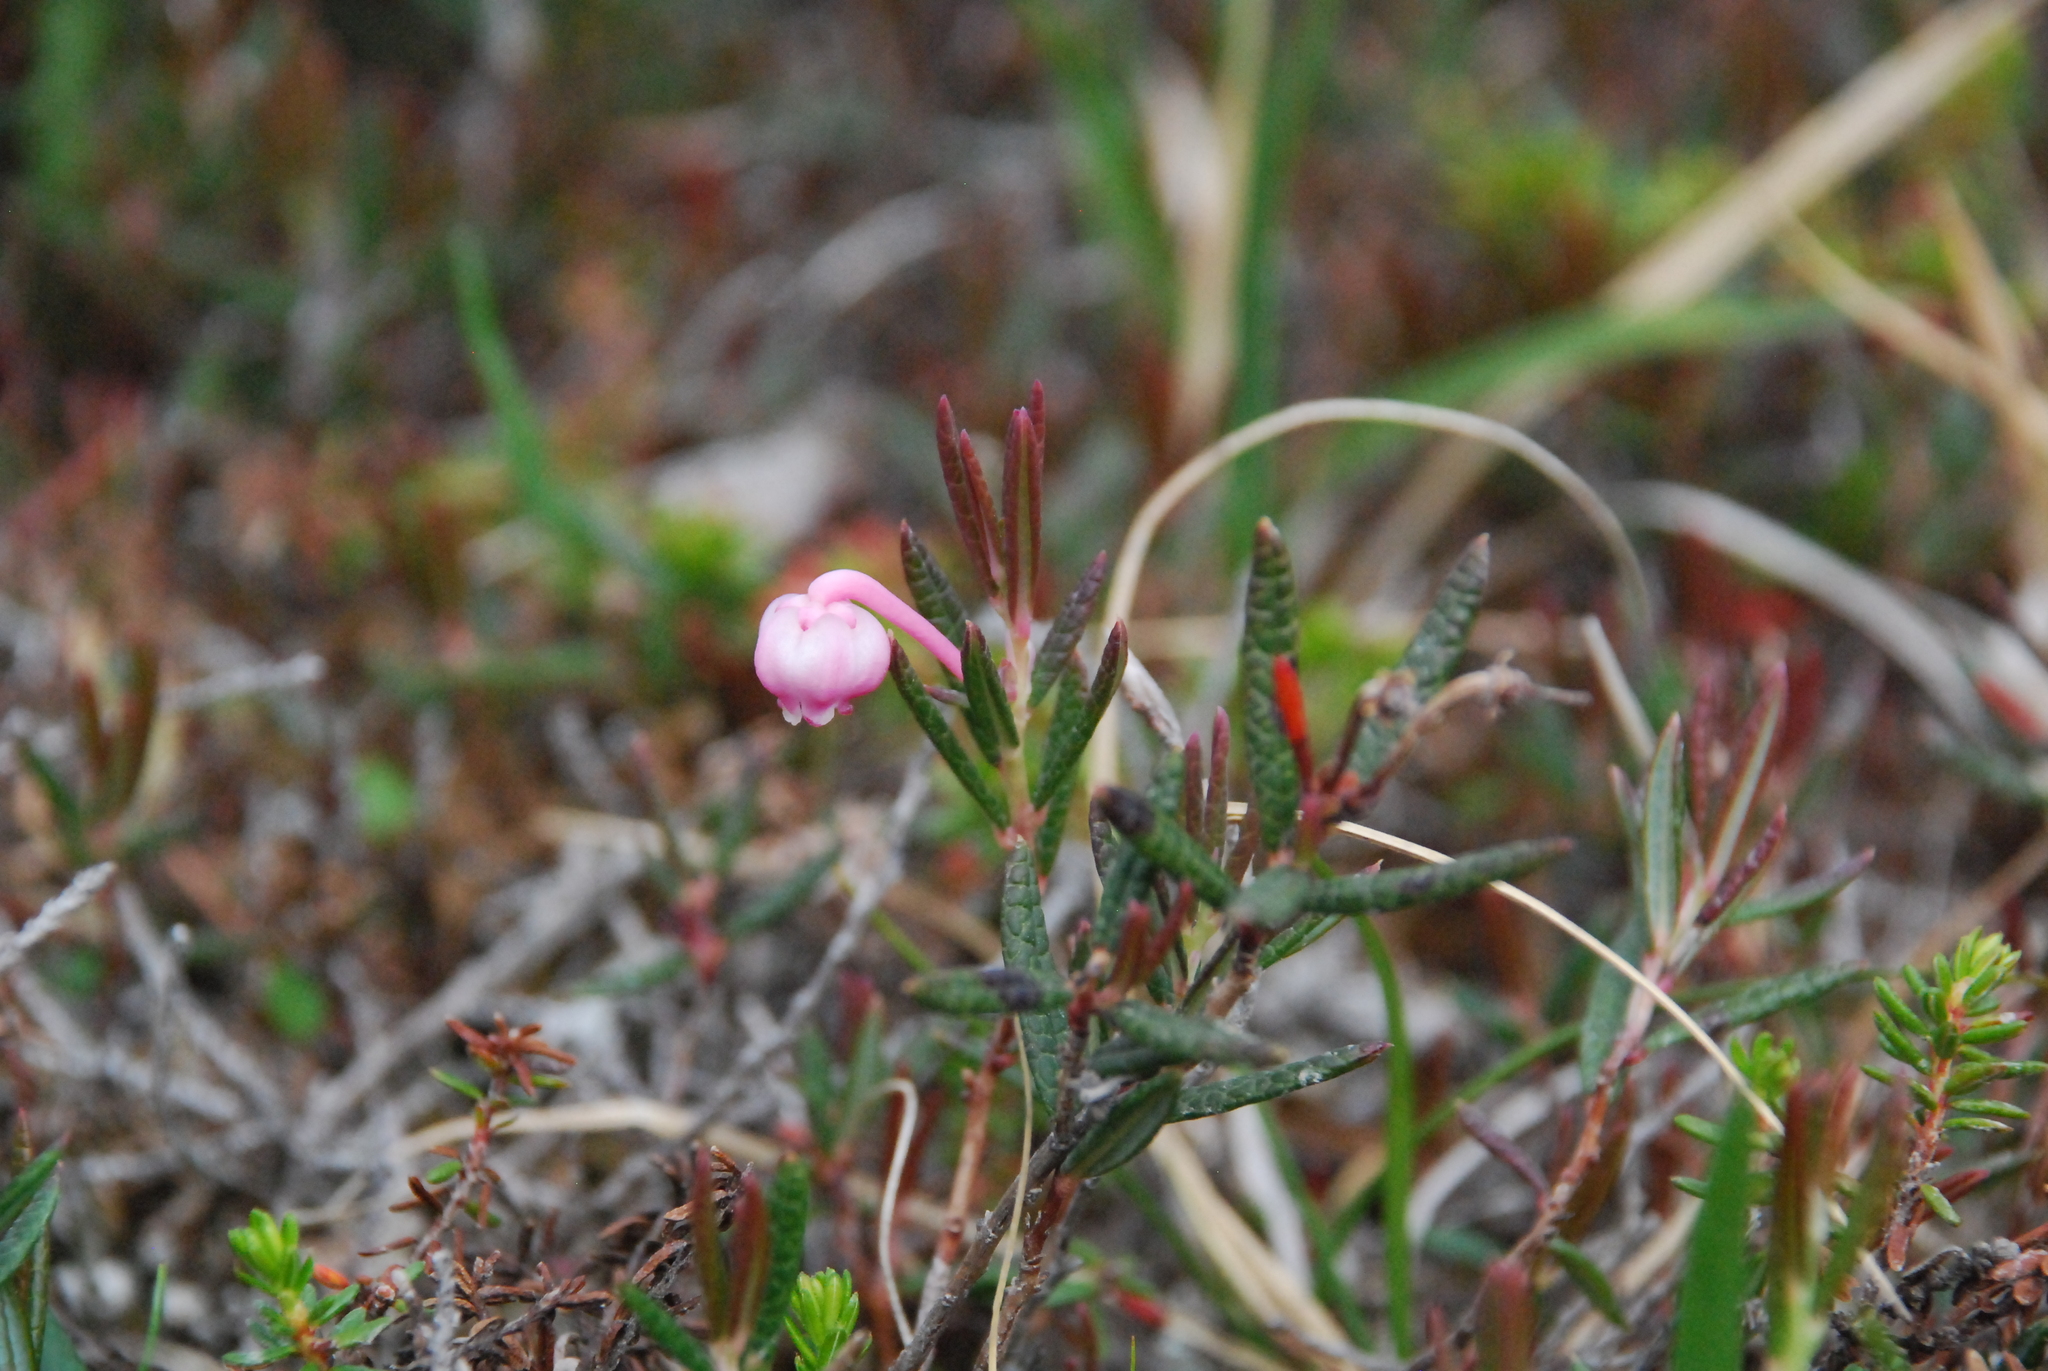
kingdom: Plantae
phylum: Tracheophyta
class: Magnoliopsida
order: Ericales
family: Ericaceae
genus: Andromeda
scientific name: Andromeda polifolia
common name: Bog-rosemary
